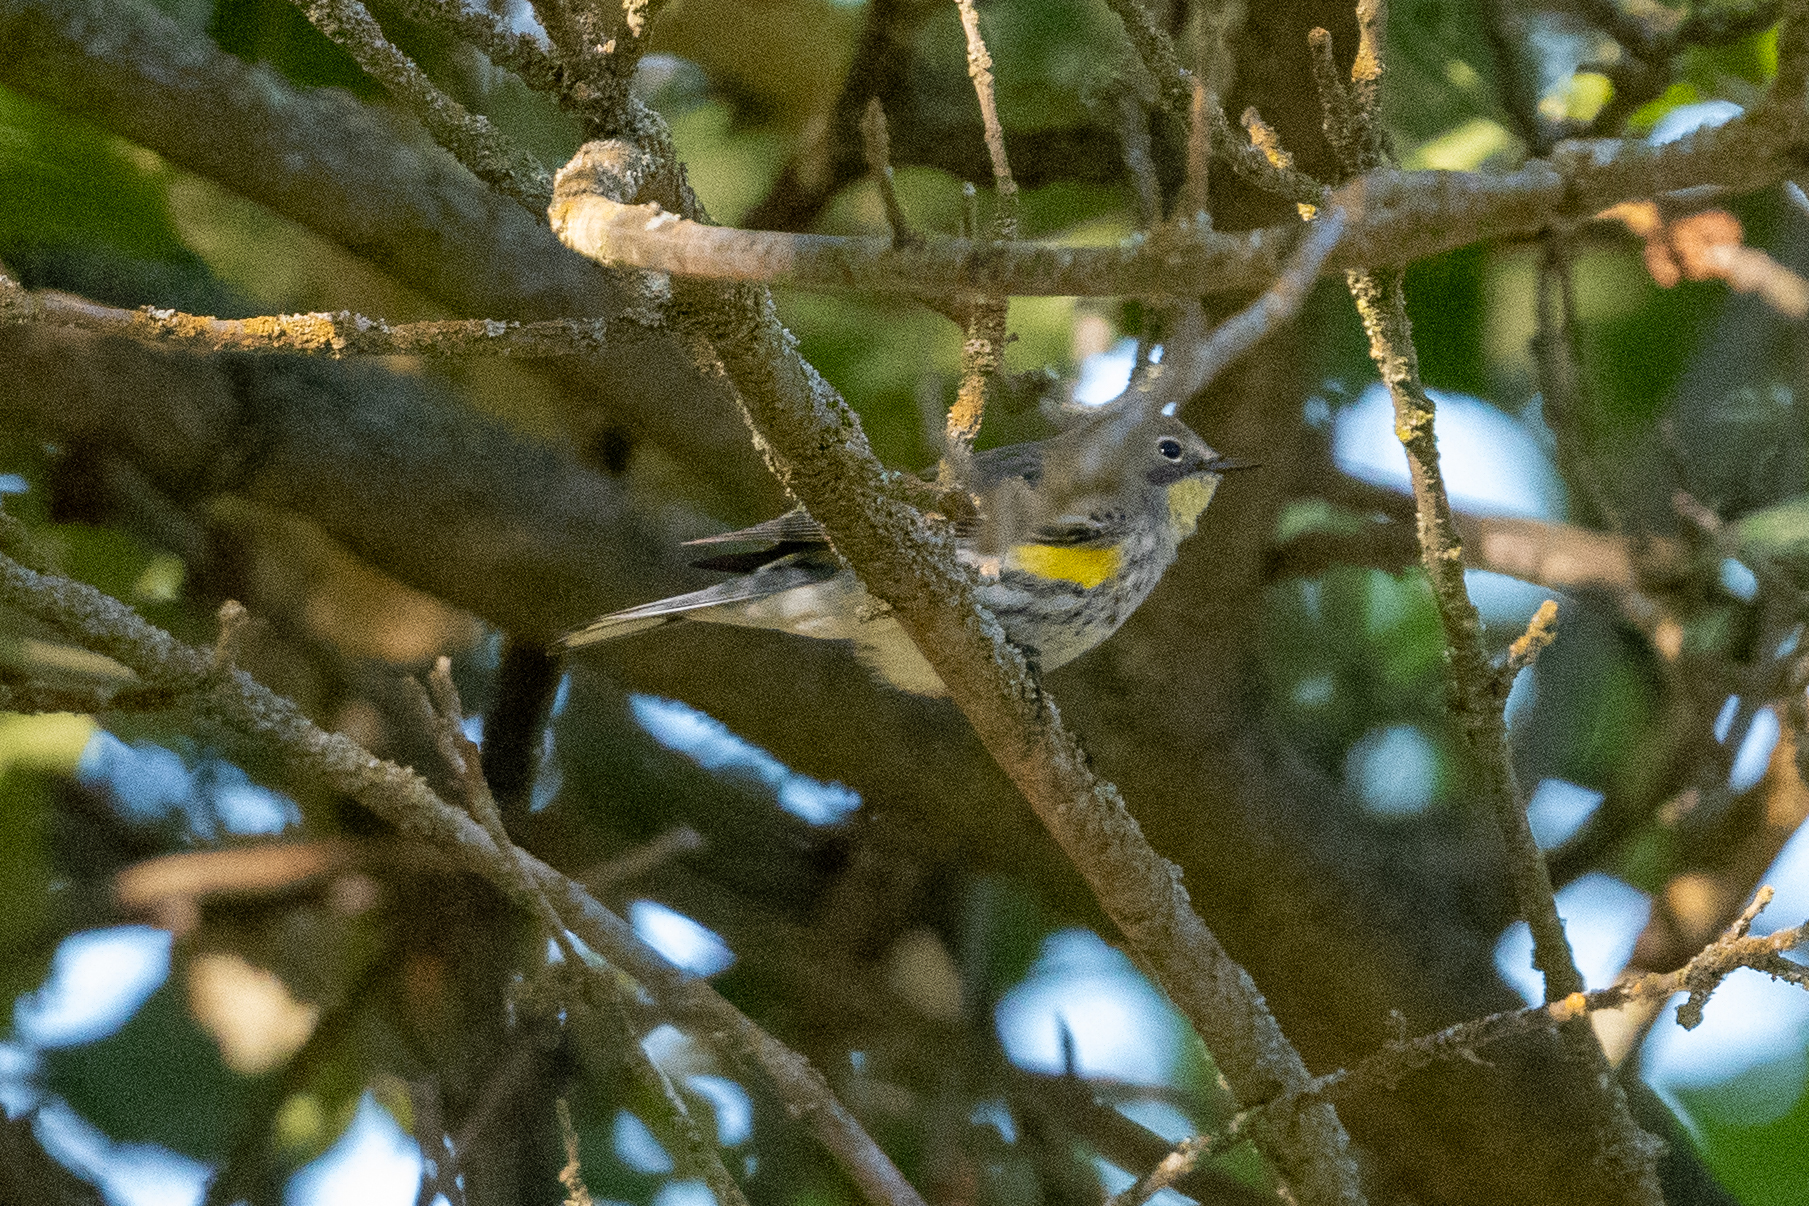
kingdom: Animalia
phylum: Chordata
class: Aves
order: Passeriformes
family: Parulidae
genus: Setophaga
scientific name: Setophaga coronata
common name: Myrtle warbler
